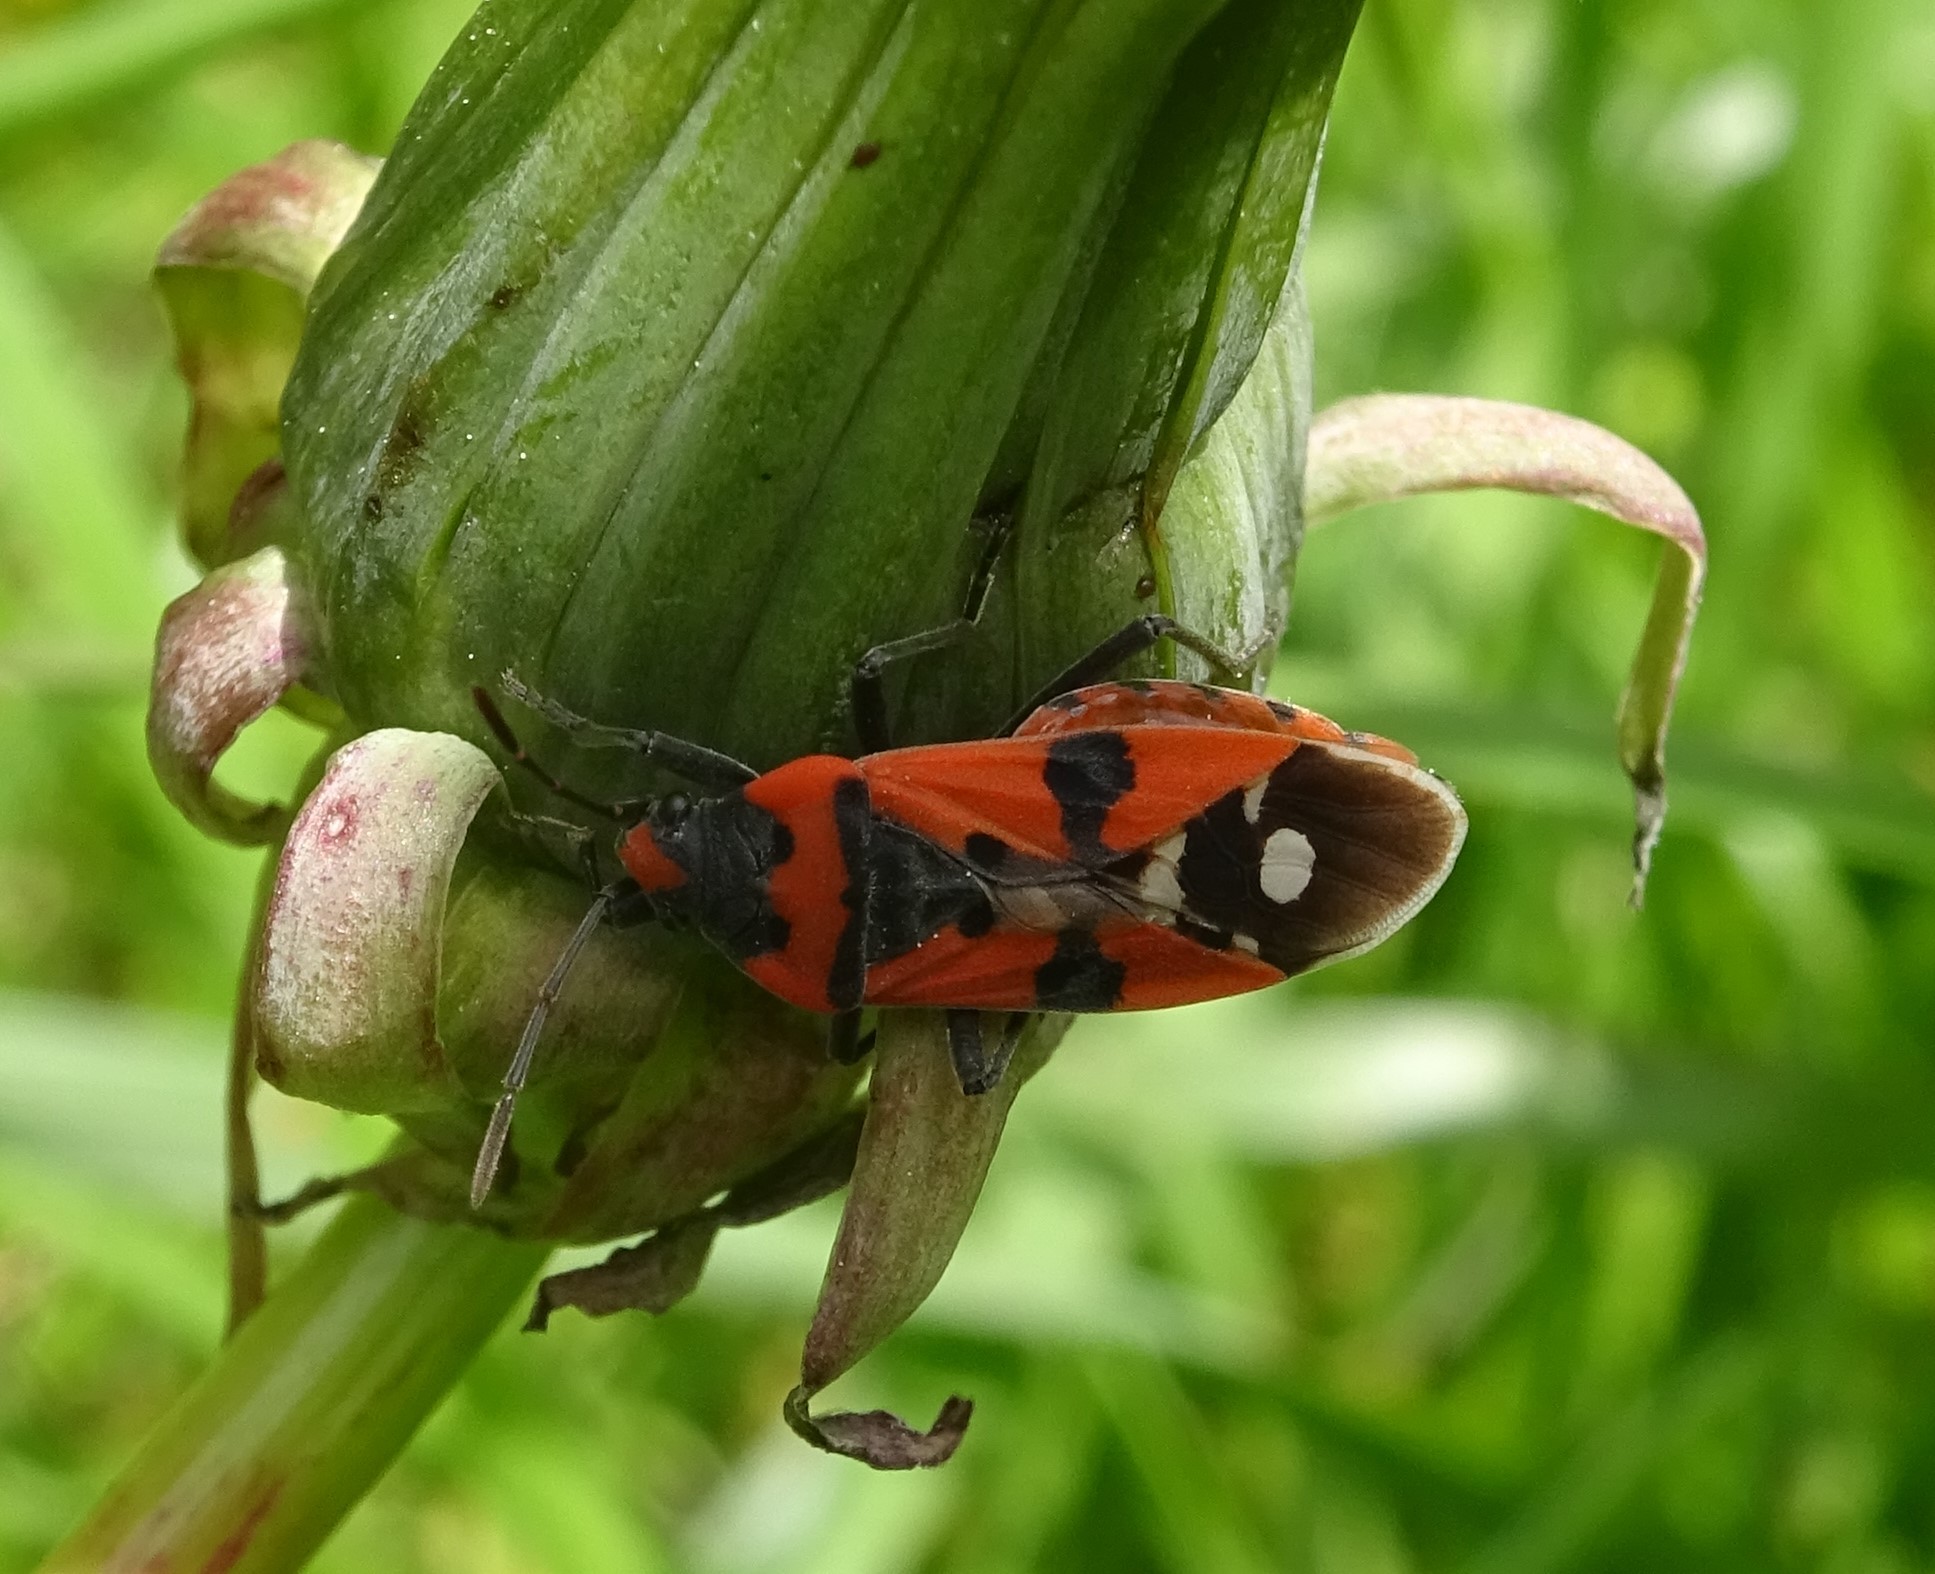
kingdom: Animalia
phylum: Arthropoda
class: Insecta
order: Hemiptera
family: Lygaeidae
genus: Lygaeus
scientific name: Lygaeus equestris
